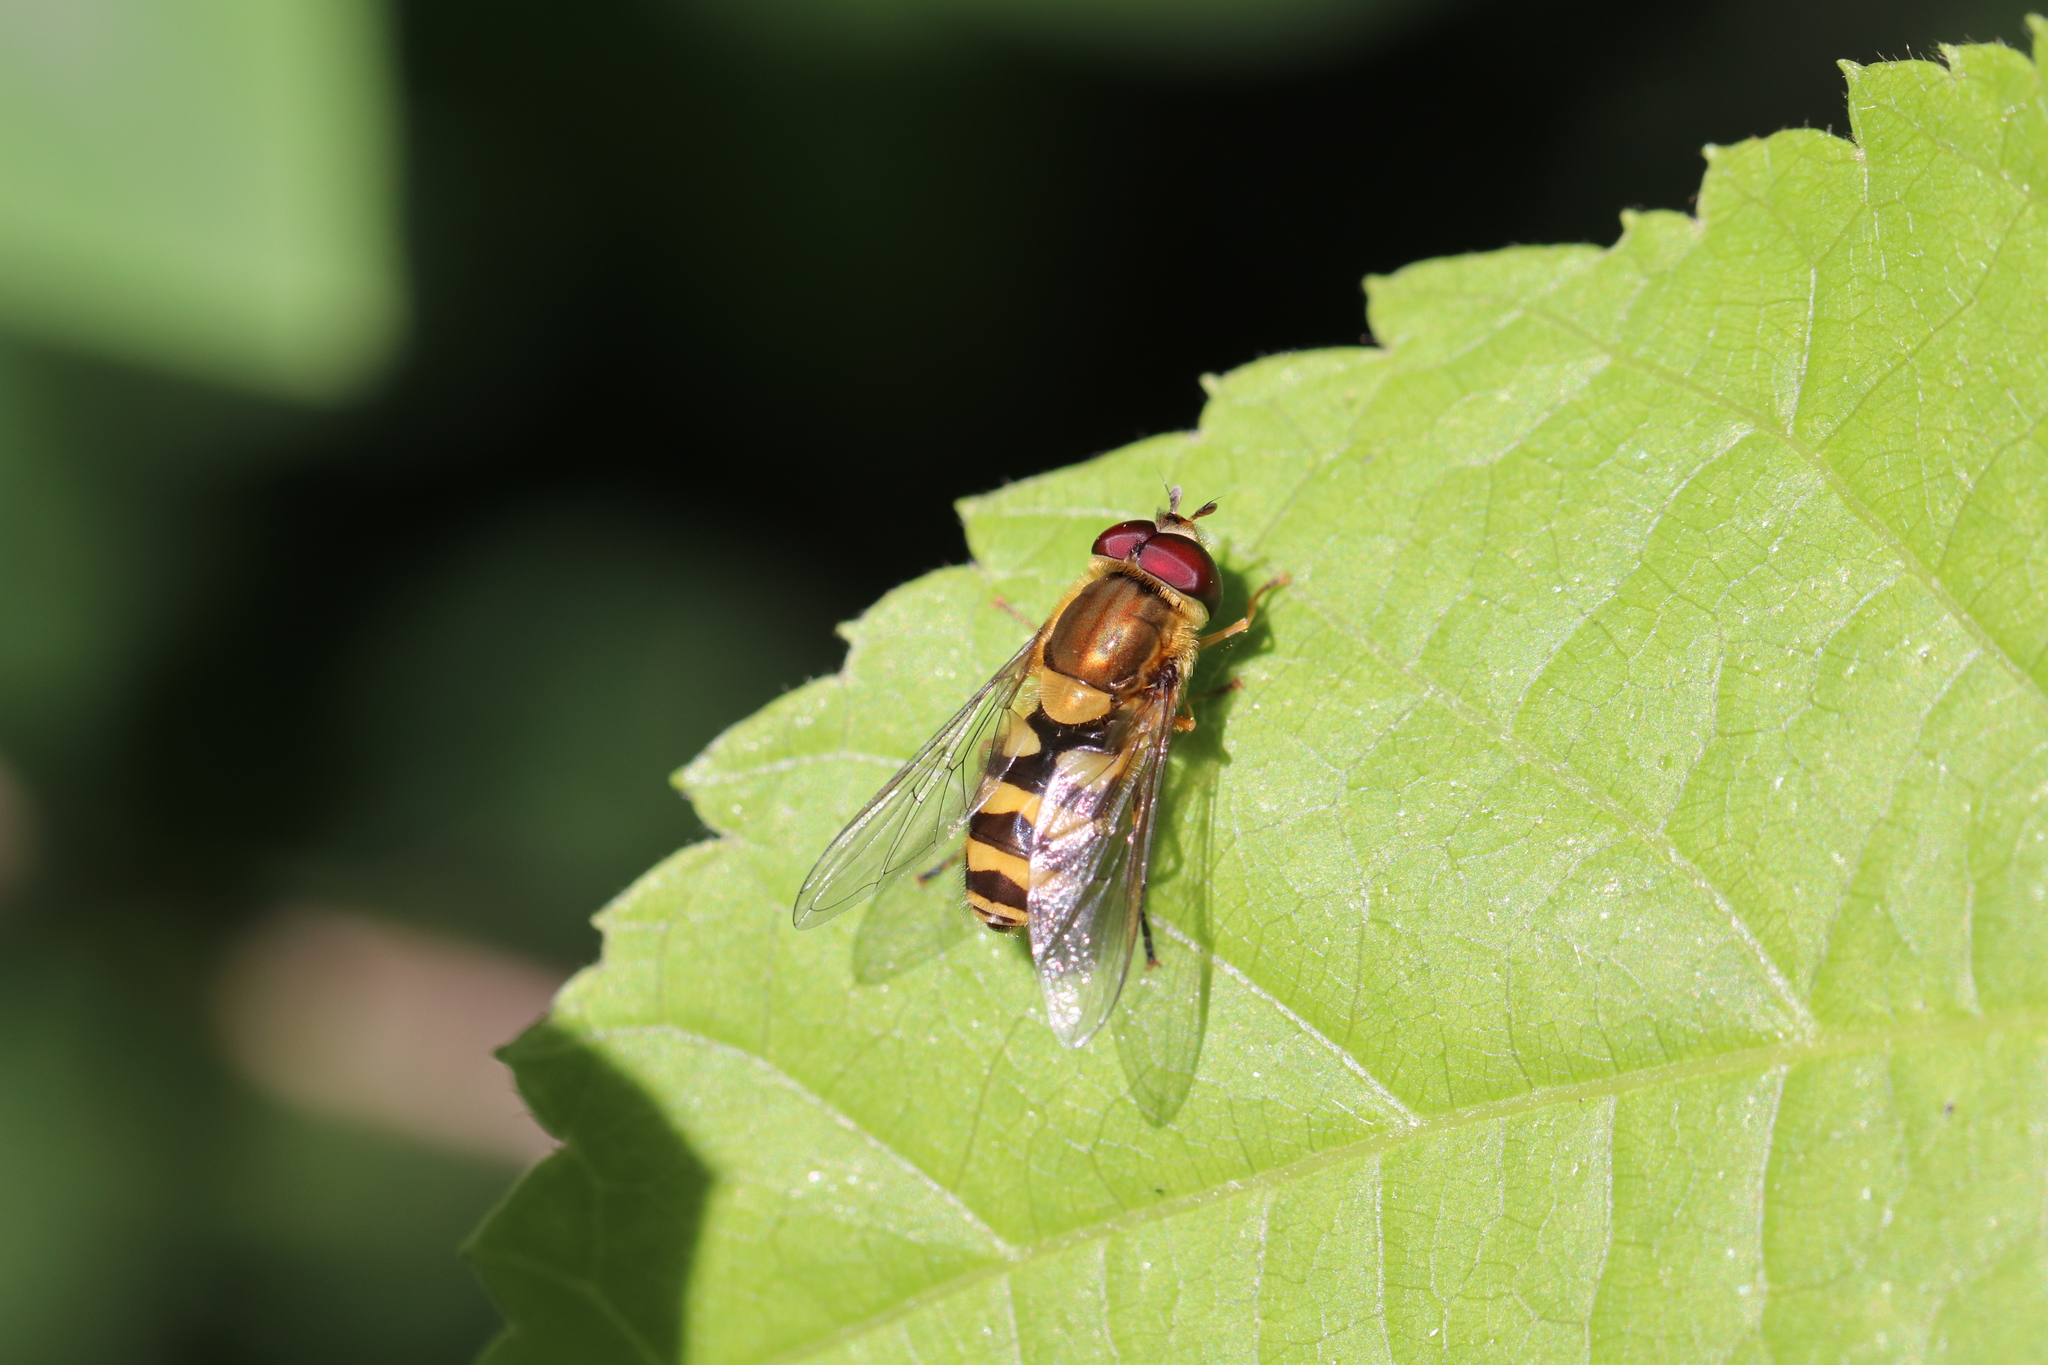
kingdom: Animalia
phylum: Arthropoda
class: Insecta
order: Diptera
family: Syrphidae
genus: Syrphus
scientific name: Syrphus
